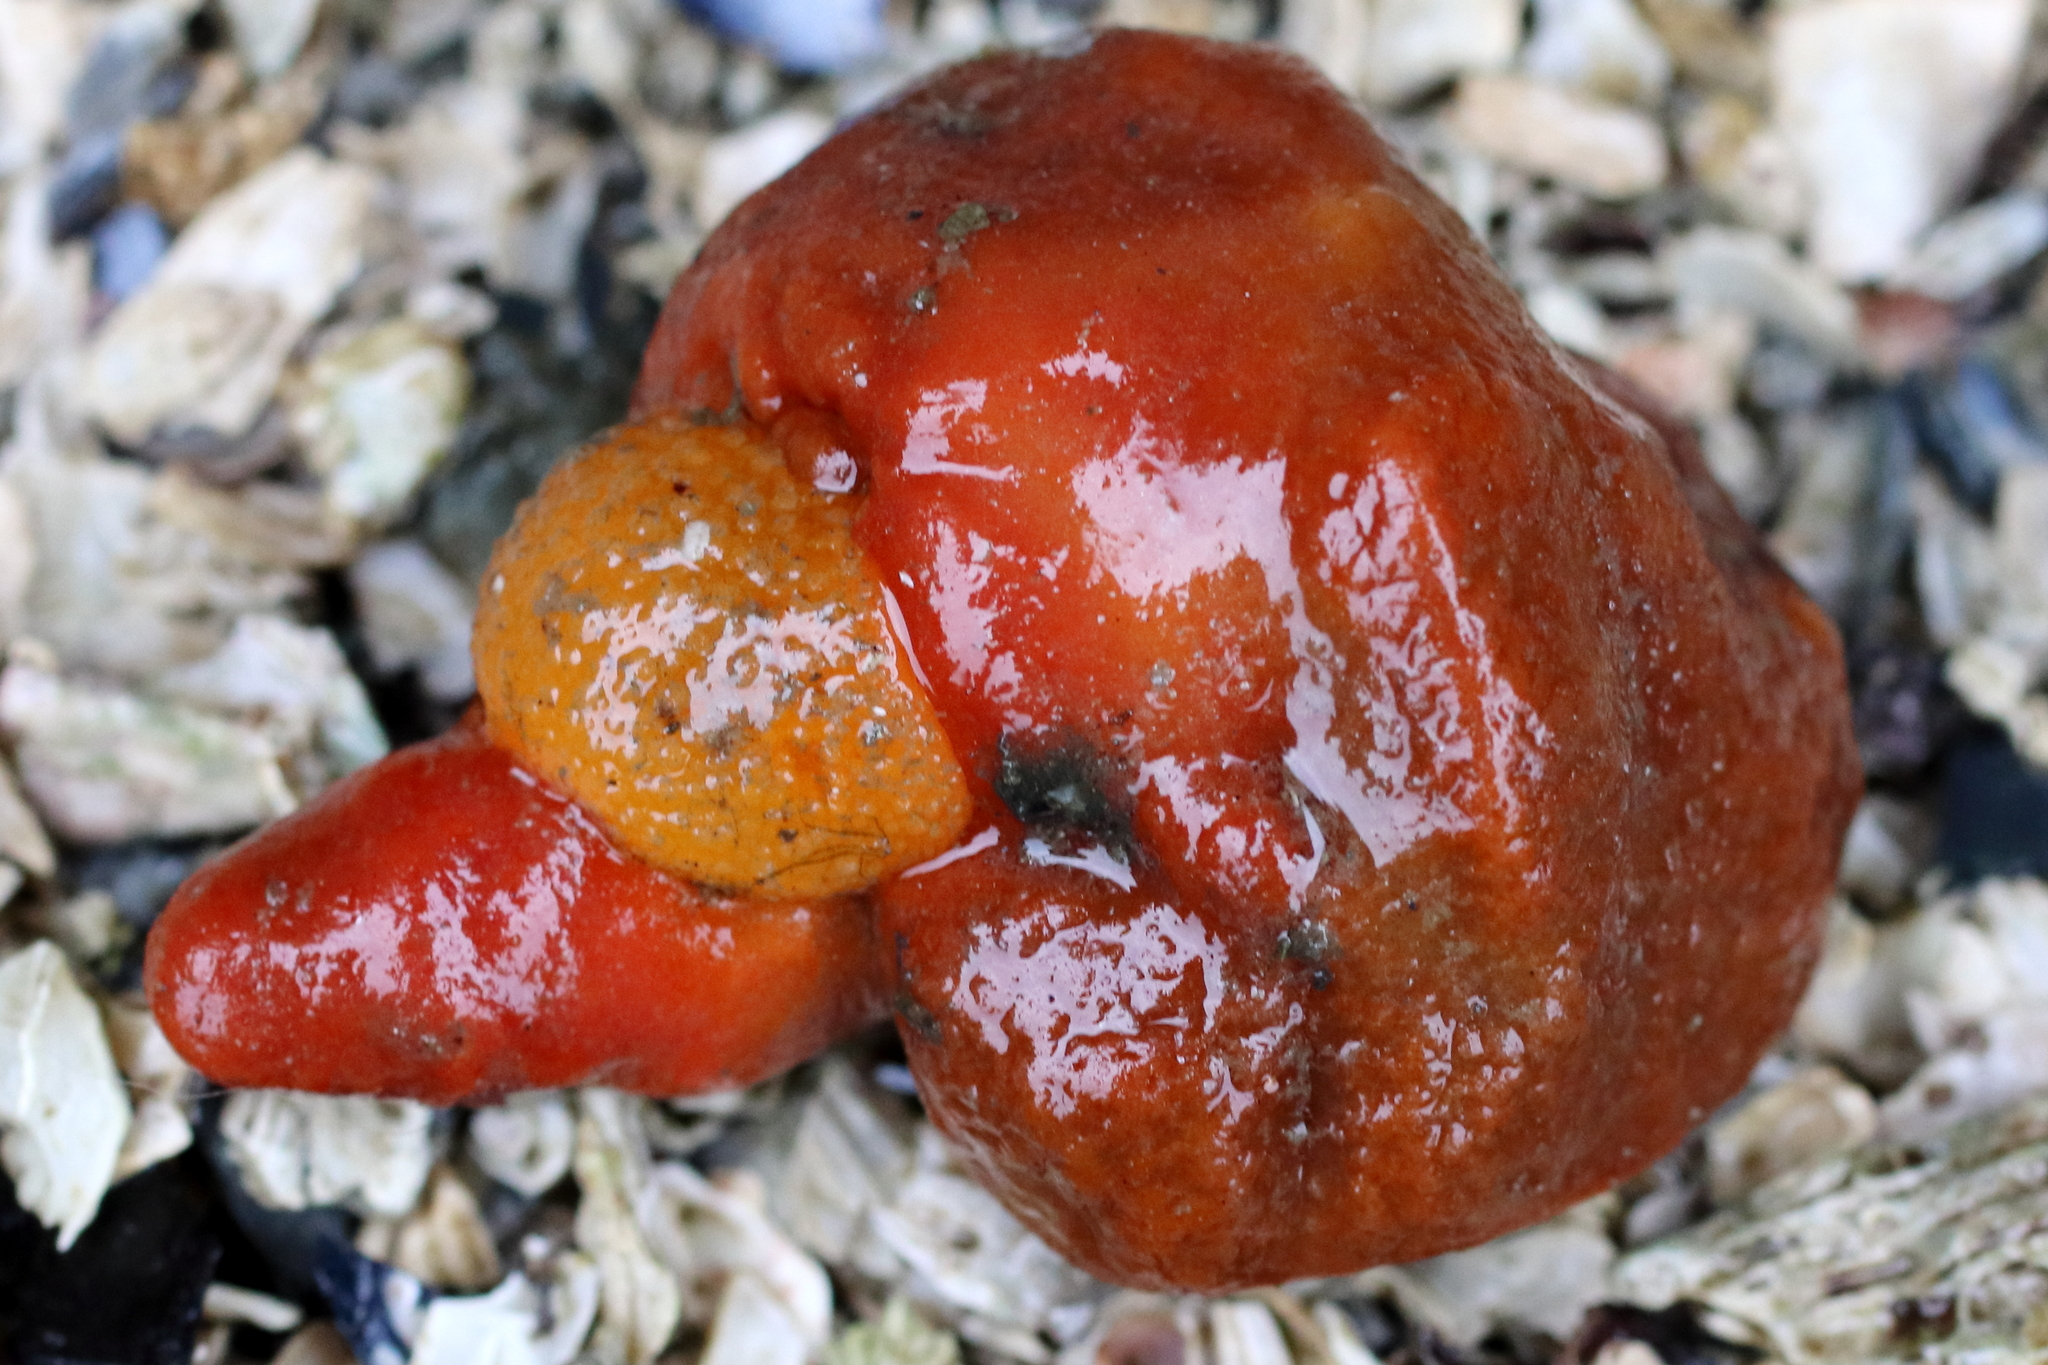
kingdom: Animalia
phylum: Mollusca
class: Gastropoda
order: Nudibranchia
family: Dorididae
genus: Doris
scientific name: Doris montereyensis
